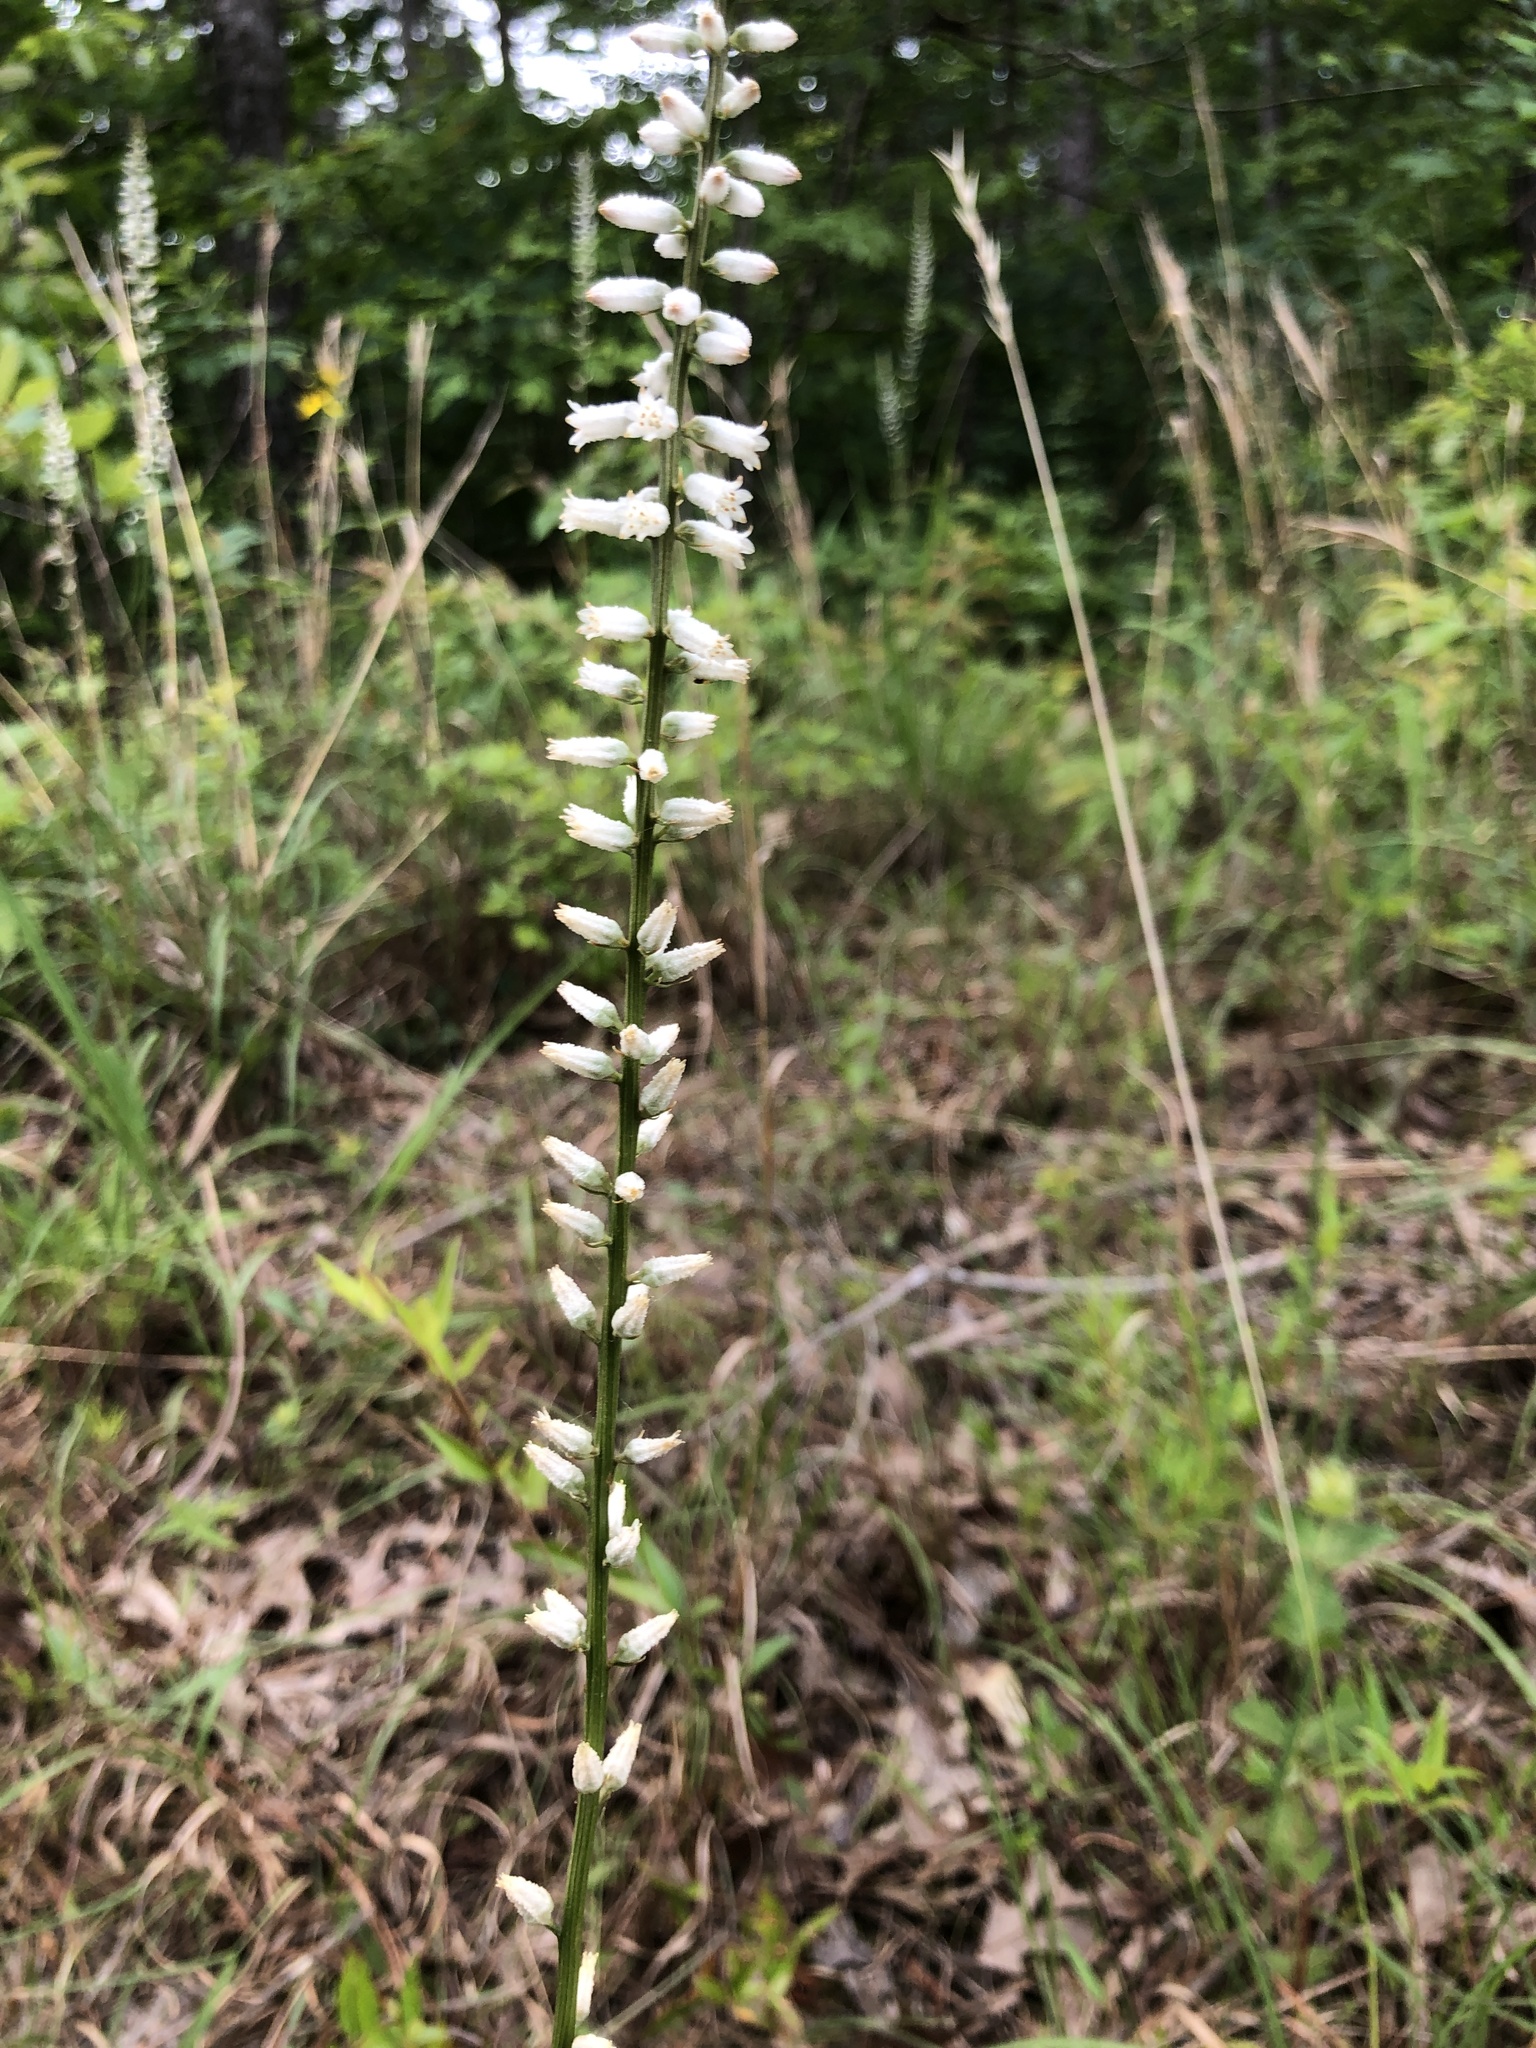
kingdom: Plantae
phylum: Tracheophyta
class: Liliopsida
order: Dioscoreales
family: Nartheciaceae
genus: Aletris
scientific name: Aletris farinosa
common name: Colicroot
